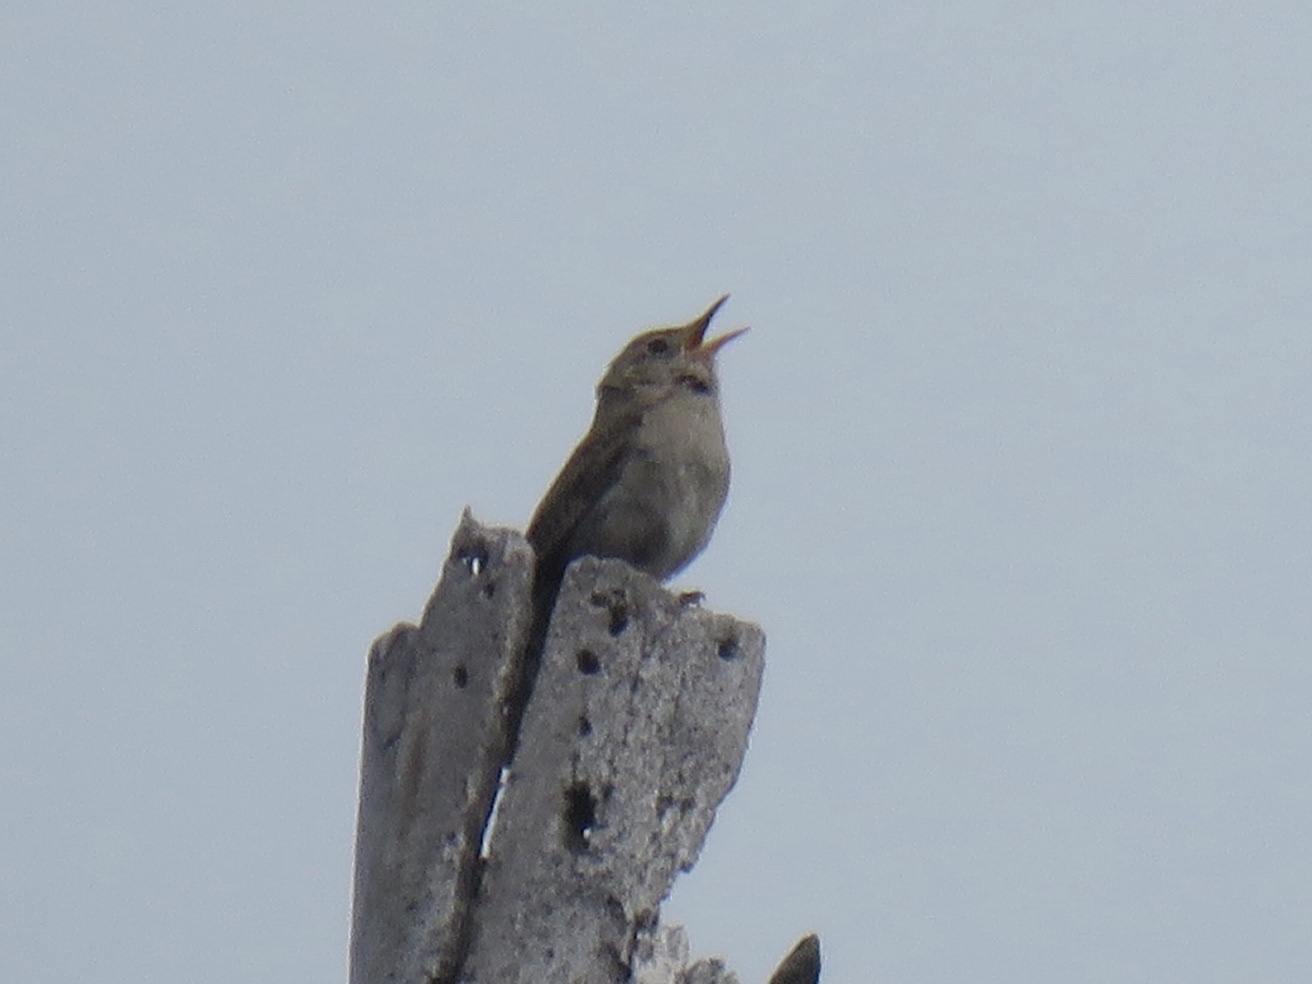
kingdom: Animalia
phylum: Chordata
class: Aves
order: Passeriformes
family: Troglodytidae
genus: Troglodytes
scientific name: Troglodytes aedon
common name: House wren
